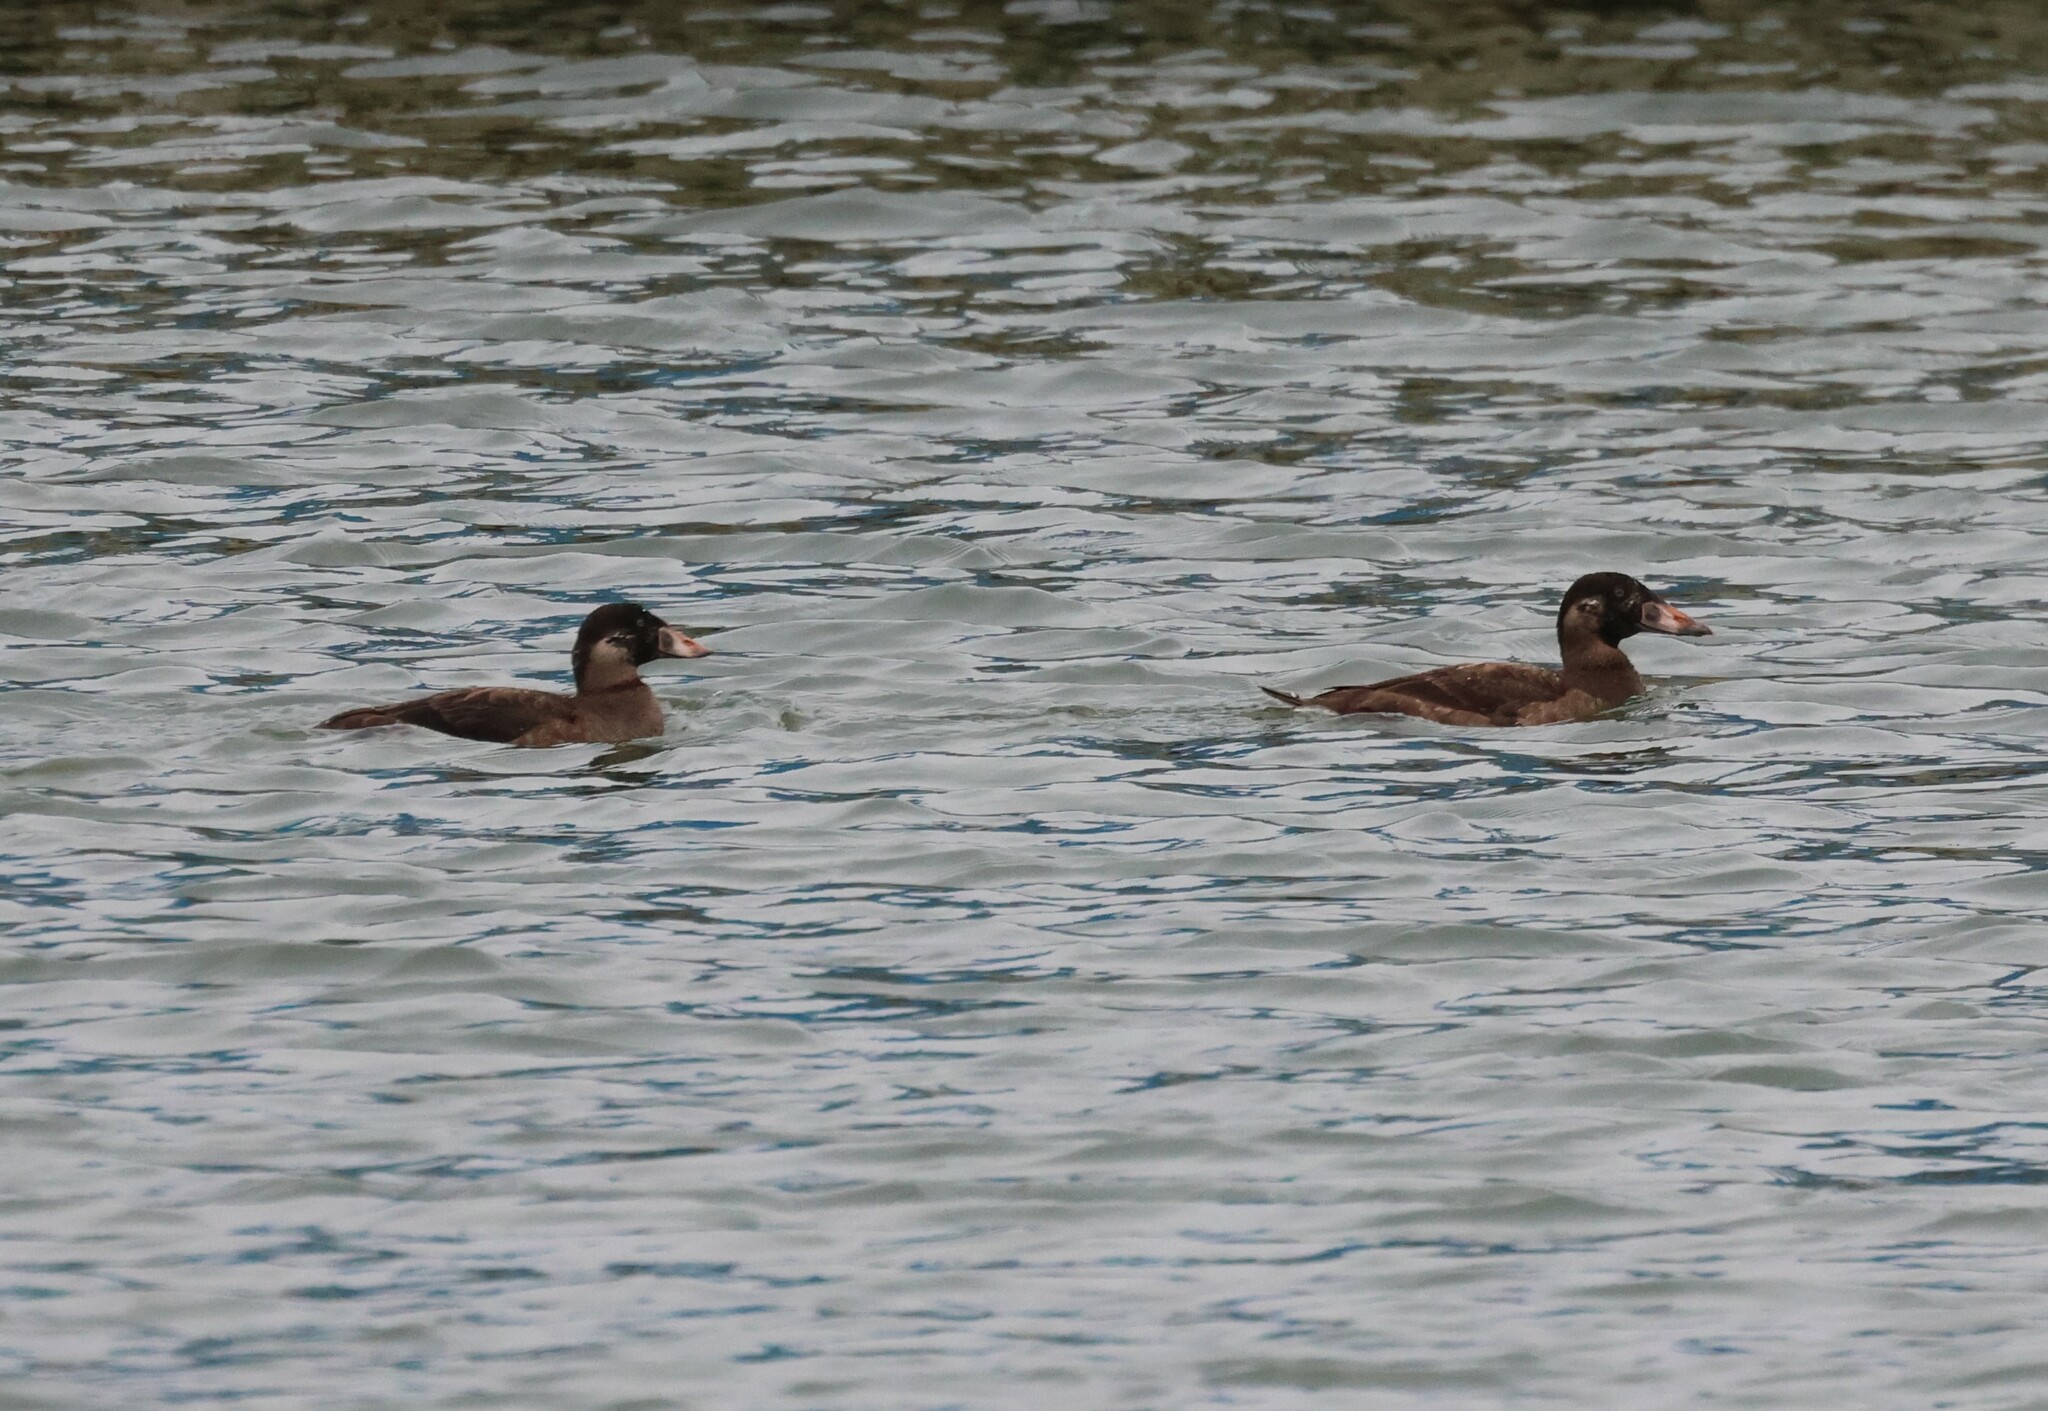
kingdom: Animalia
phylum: Chordata
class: Aves
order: Anseriformes
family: Anatidae
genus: Melanitta
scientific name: Melanitta perspicillata
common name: Surf scoter
